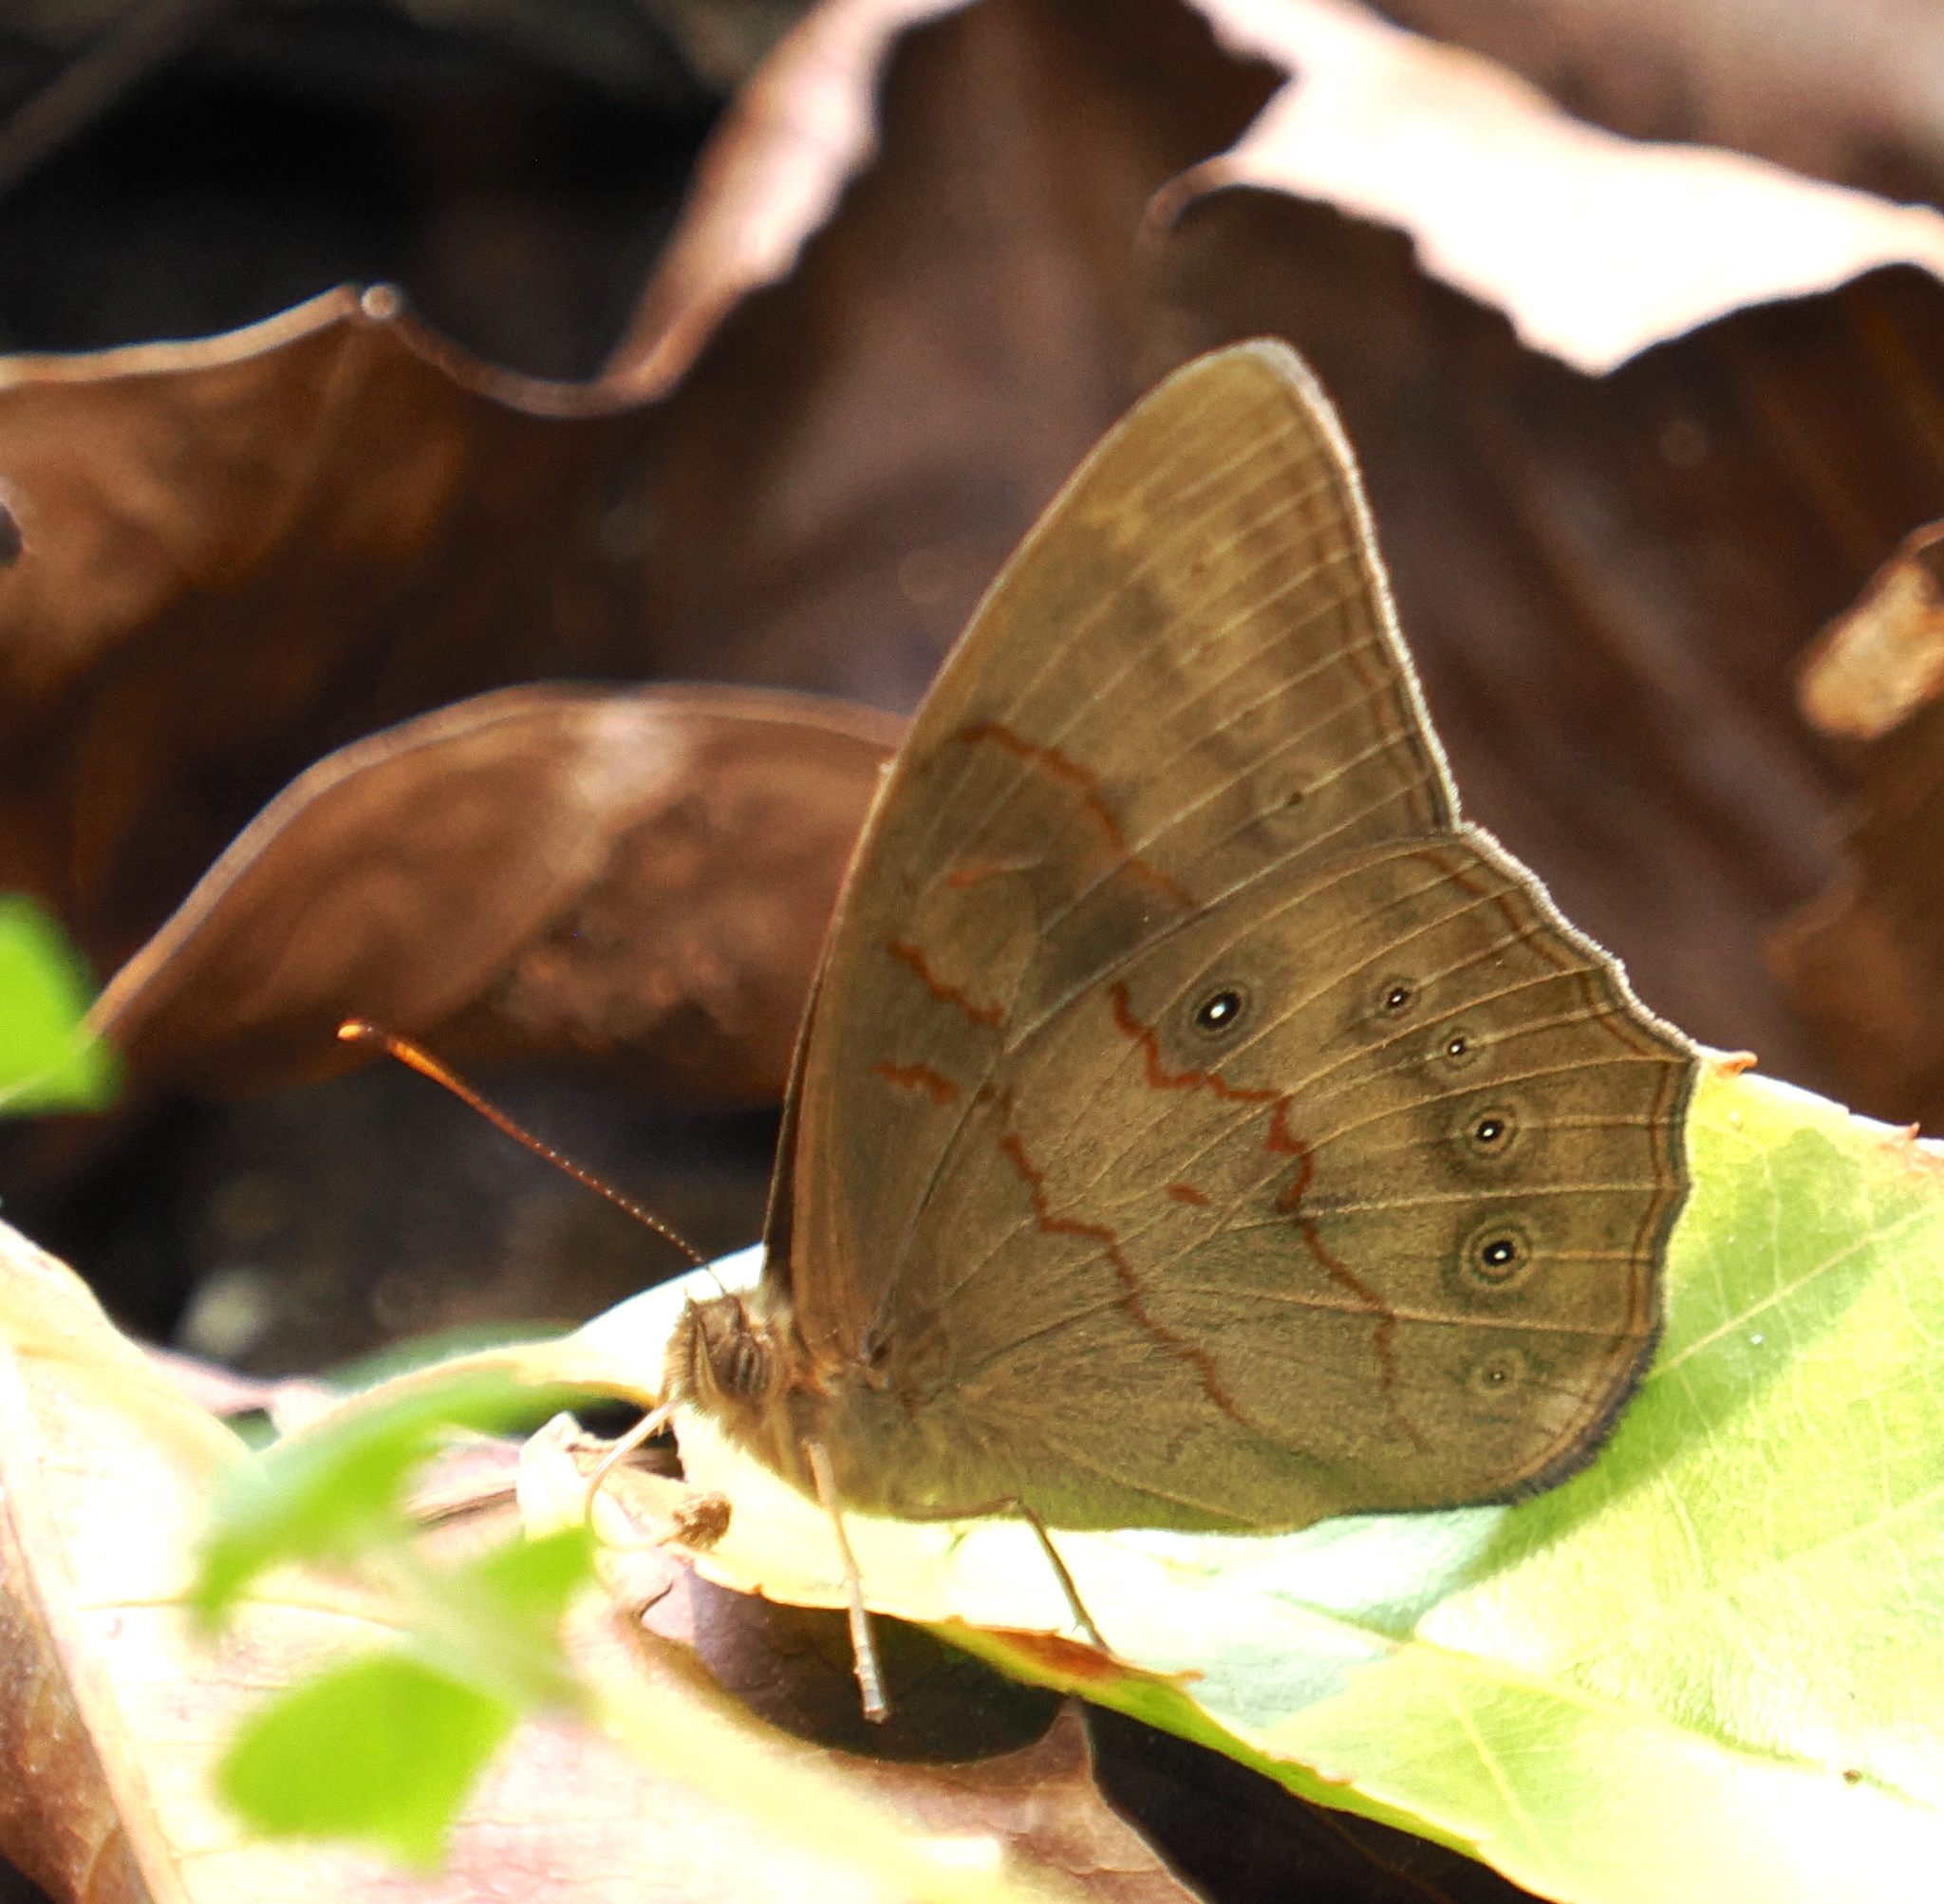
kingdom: Animalia
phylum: Arthropoda
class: Insecta
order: Lepidoptera
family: Nymphalidae
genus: Lethe
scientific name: Lethe gulnihal
